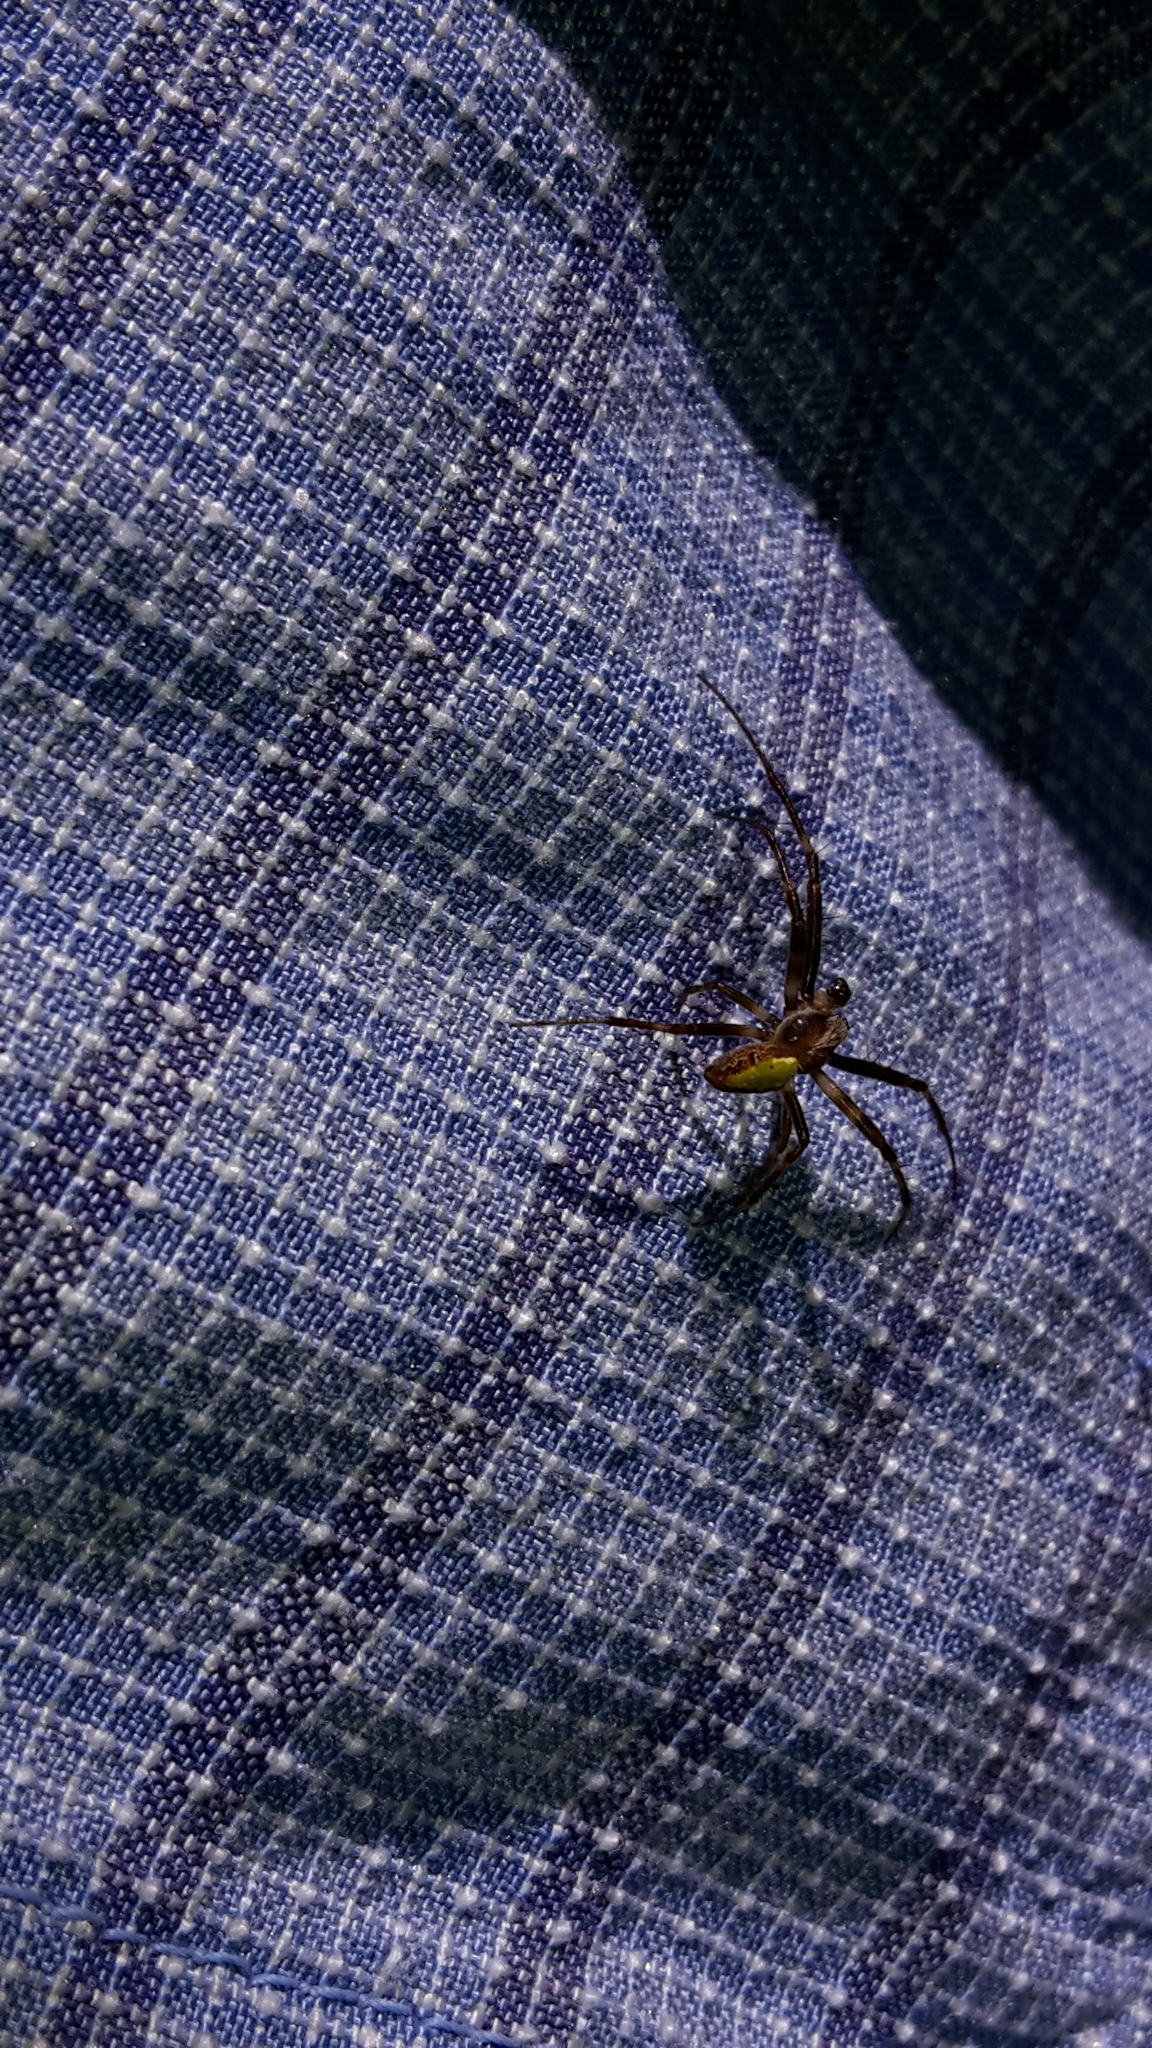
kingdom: Animalia
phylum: Arthropoda
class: Arachnida
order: Araneae
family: Araneidae
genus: Colaranea
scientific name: Colaranea viriditas
